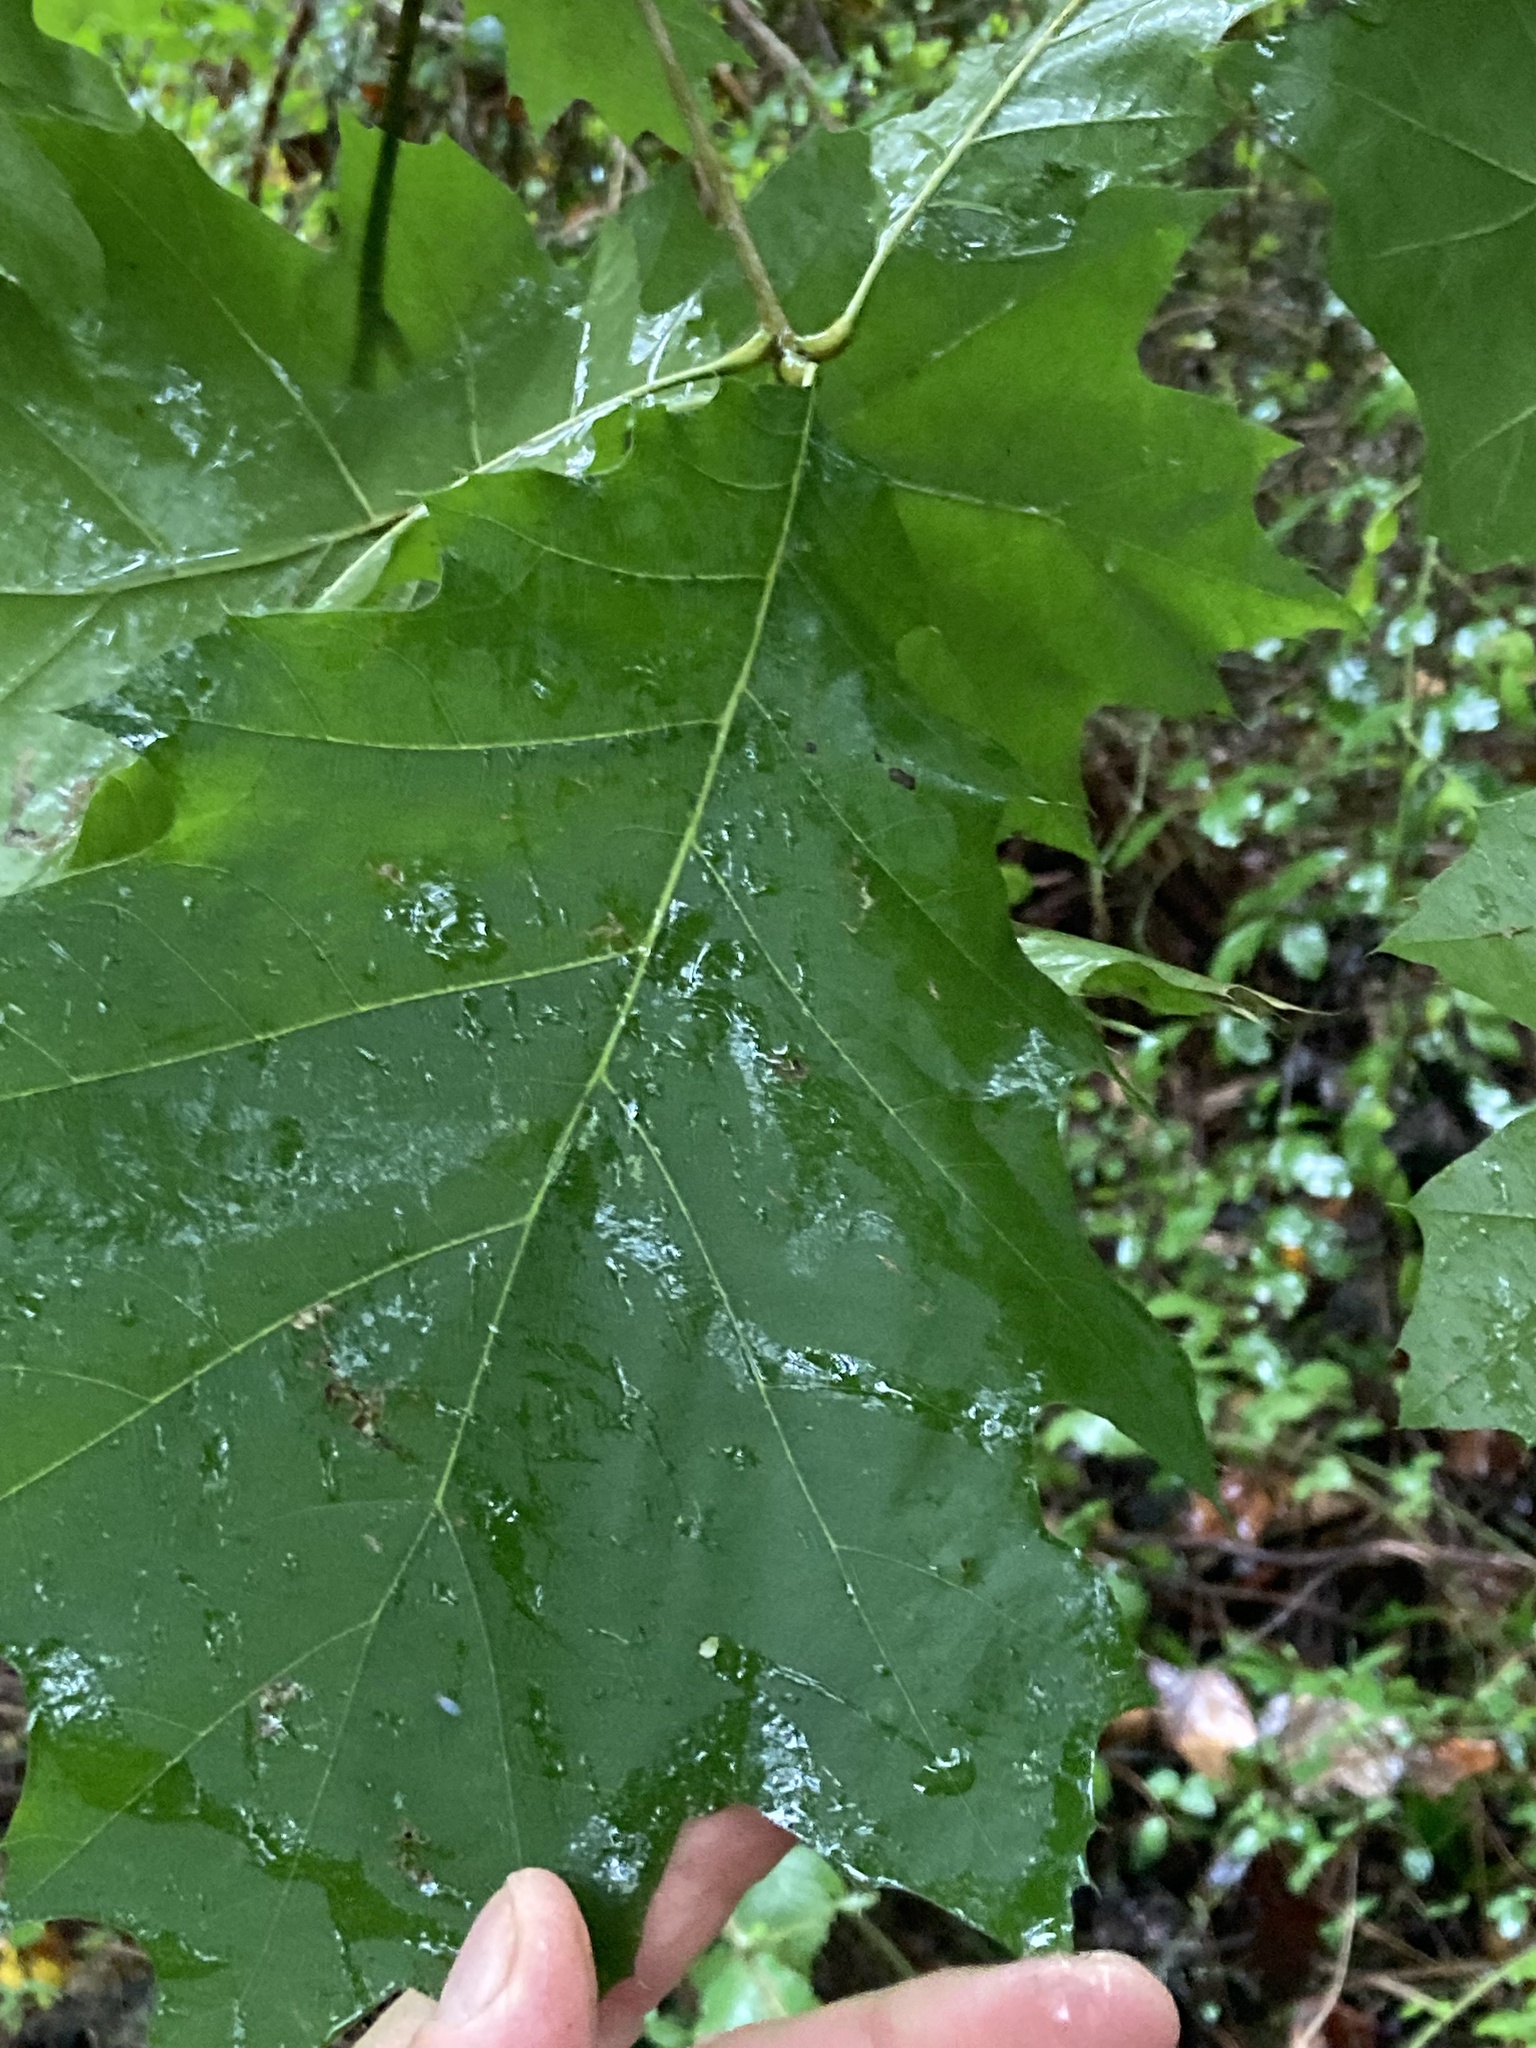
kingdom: Plantae
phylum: Tracheophyta
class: Magnoliopsida
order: Fagales
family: Fagaceae
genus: Quercus
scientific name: Quercus rubra
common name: Red oak
